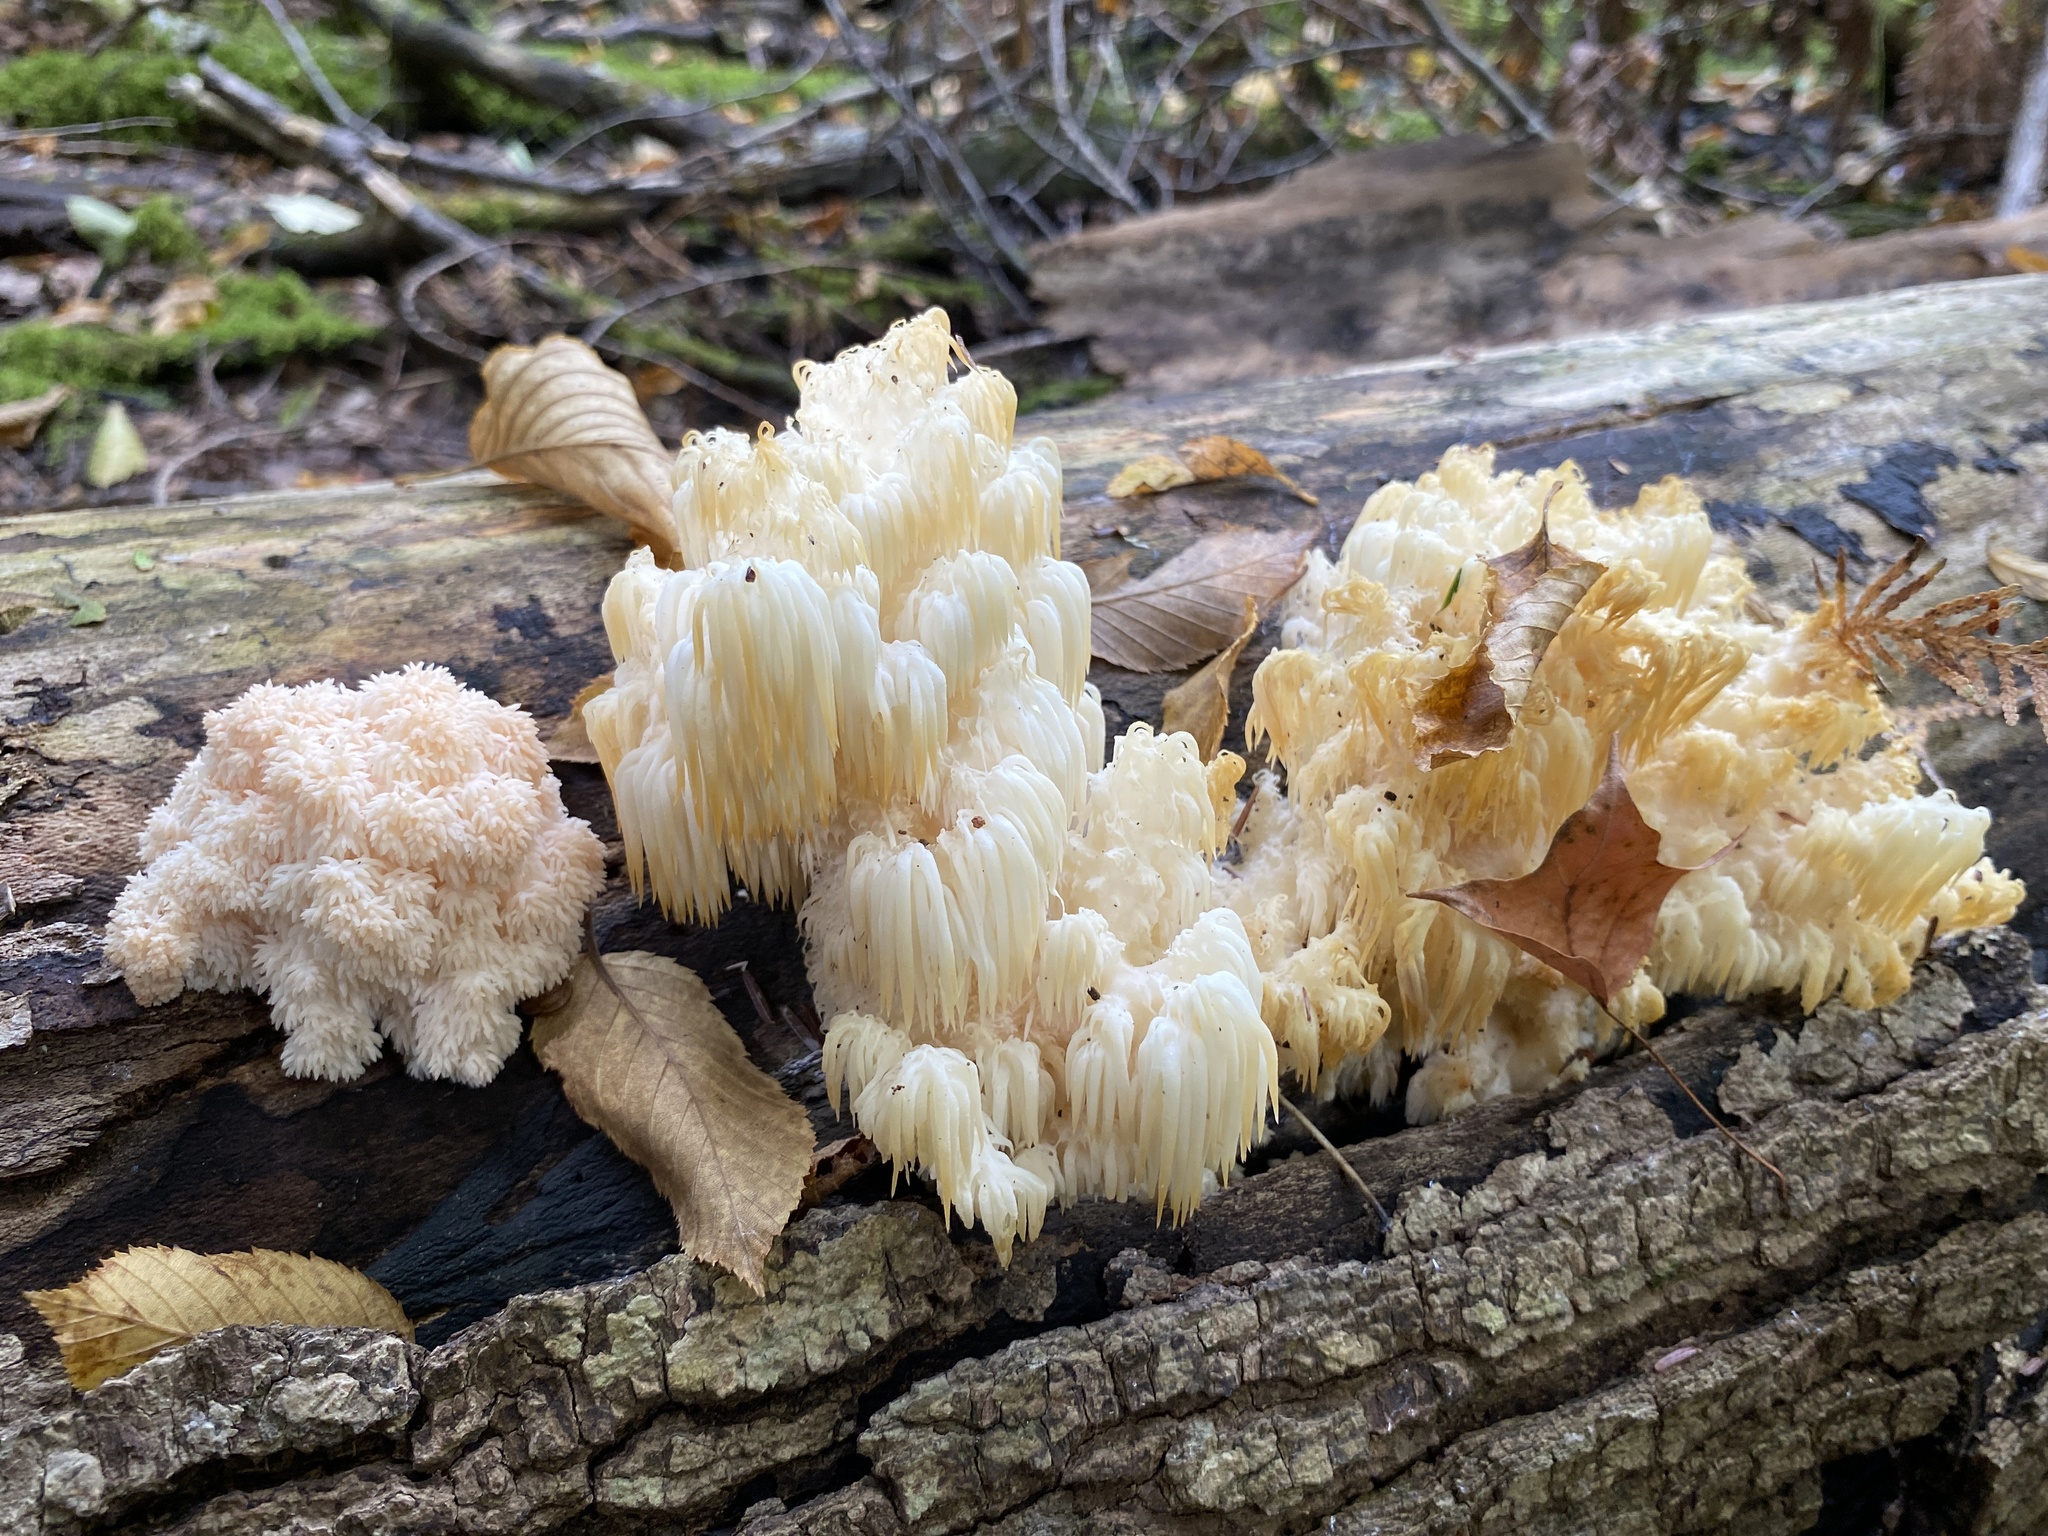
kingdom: Fungi
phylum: Basidiomycota
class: Agaricomycetes
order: Russulales
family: Hericiaceae
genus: Hericium
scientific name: Hericium americanum
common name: Bear's head tooth
